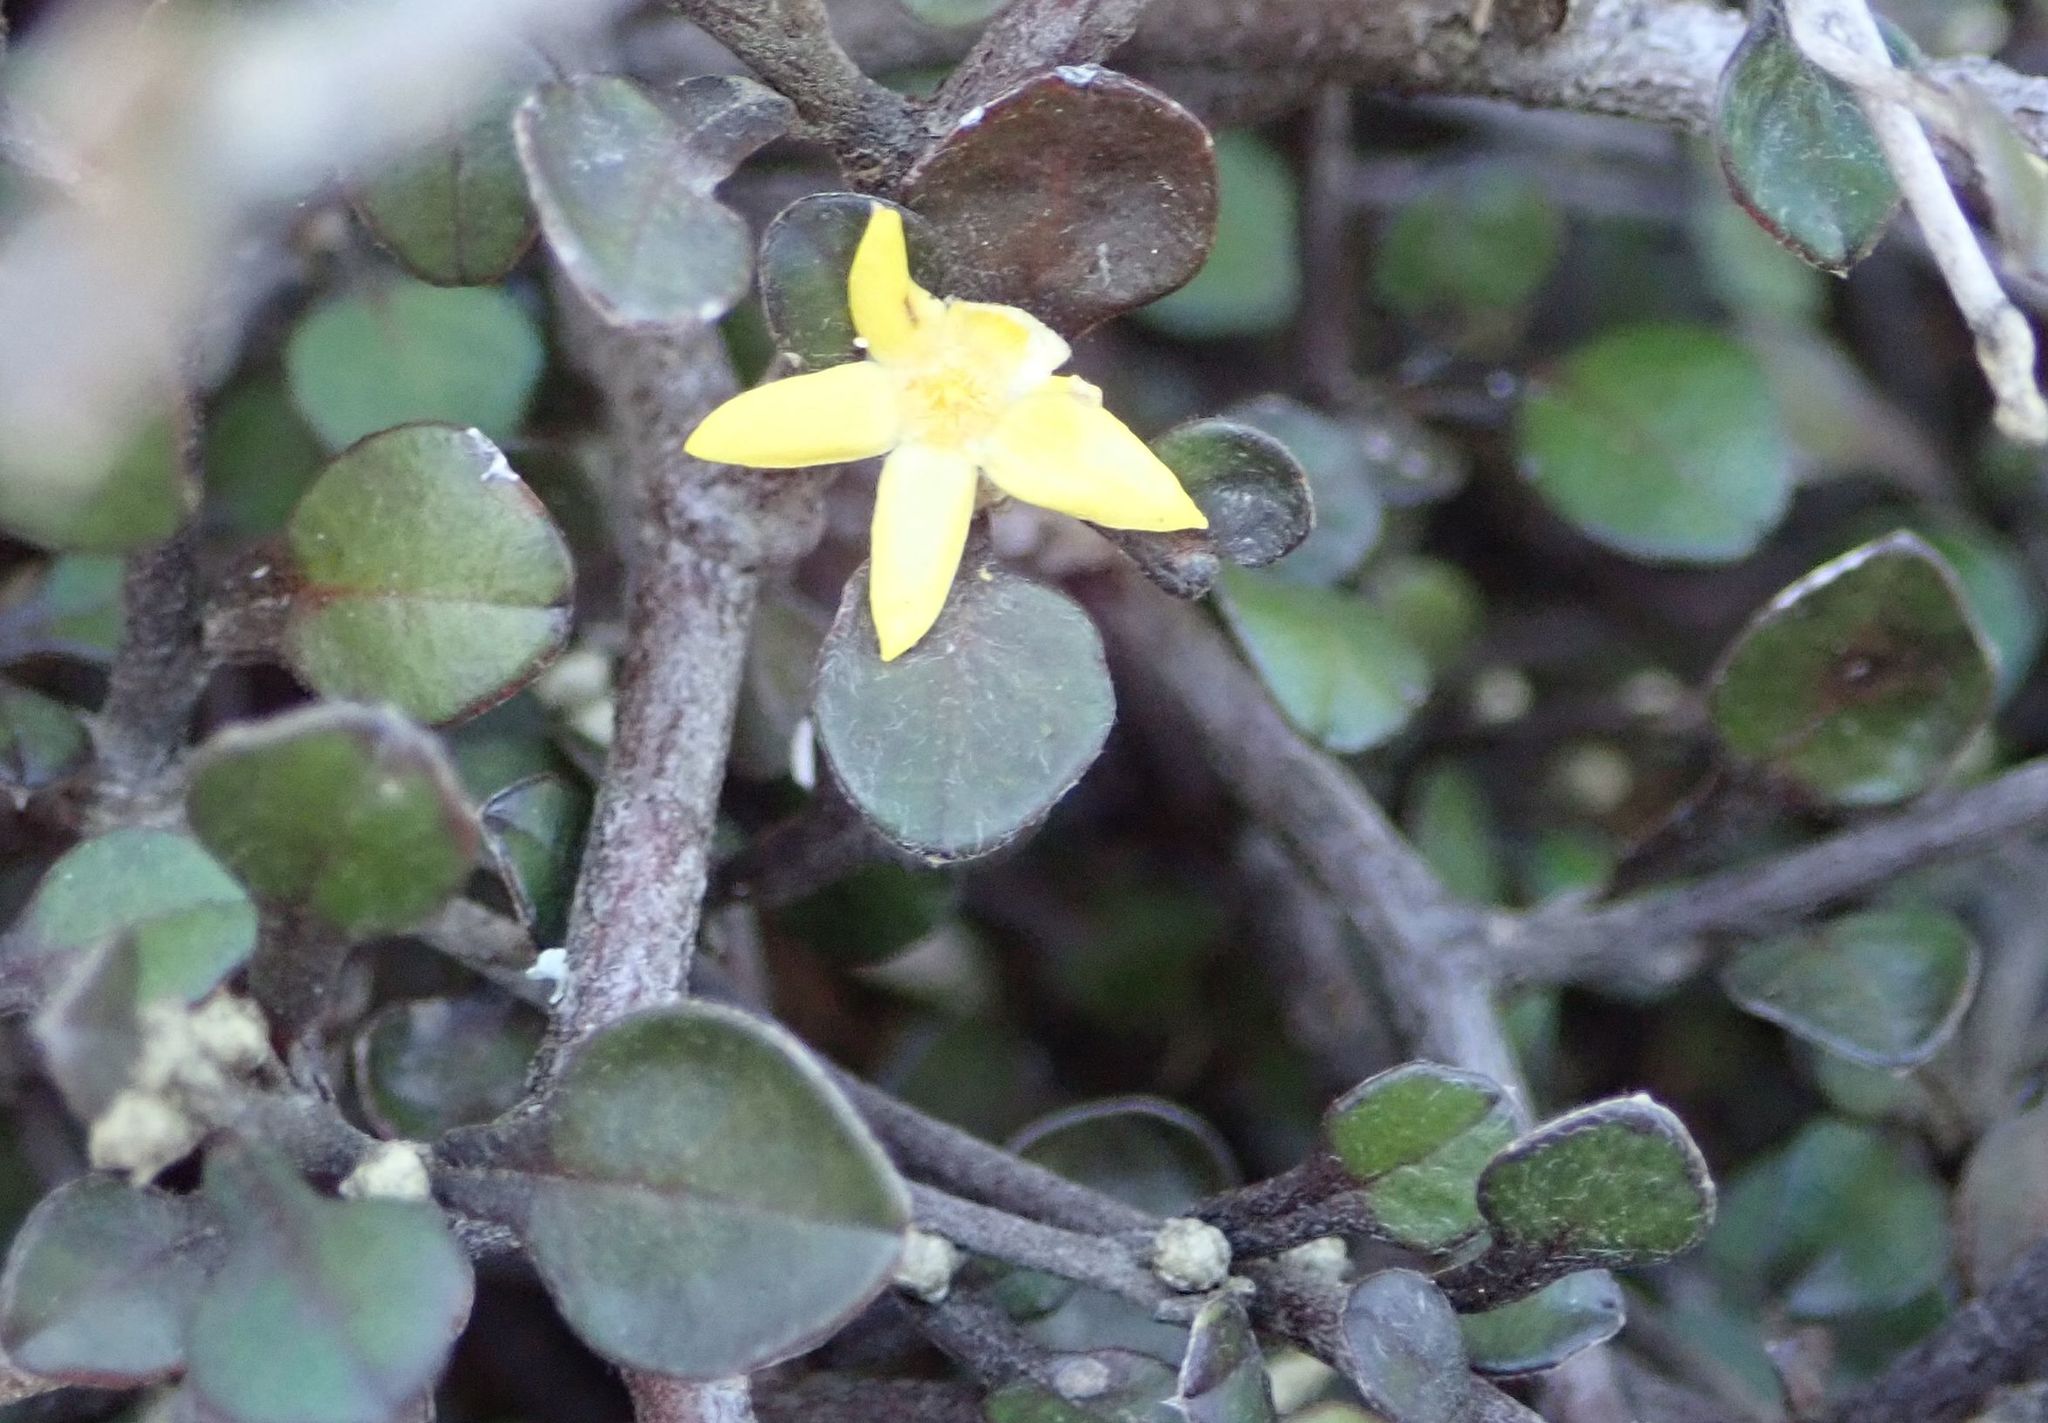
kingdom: Plantae
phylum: Tracheophyta
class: Magnoliopsida
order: Asterales
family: Argophyllaceae
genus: Corokia
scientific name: Corokia cotoneaster
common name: Wire nettingbush
